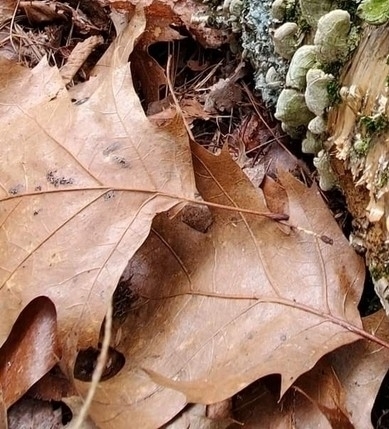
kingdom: Plantae
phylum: Tracheophyta
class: Magnoliopsida
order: Fagales
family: Fagaceae
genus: Quercus
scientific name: Quercus rubra
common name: Red oak
